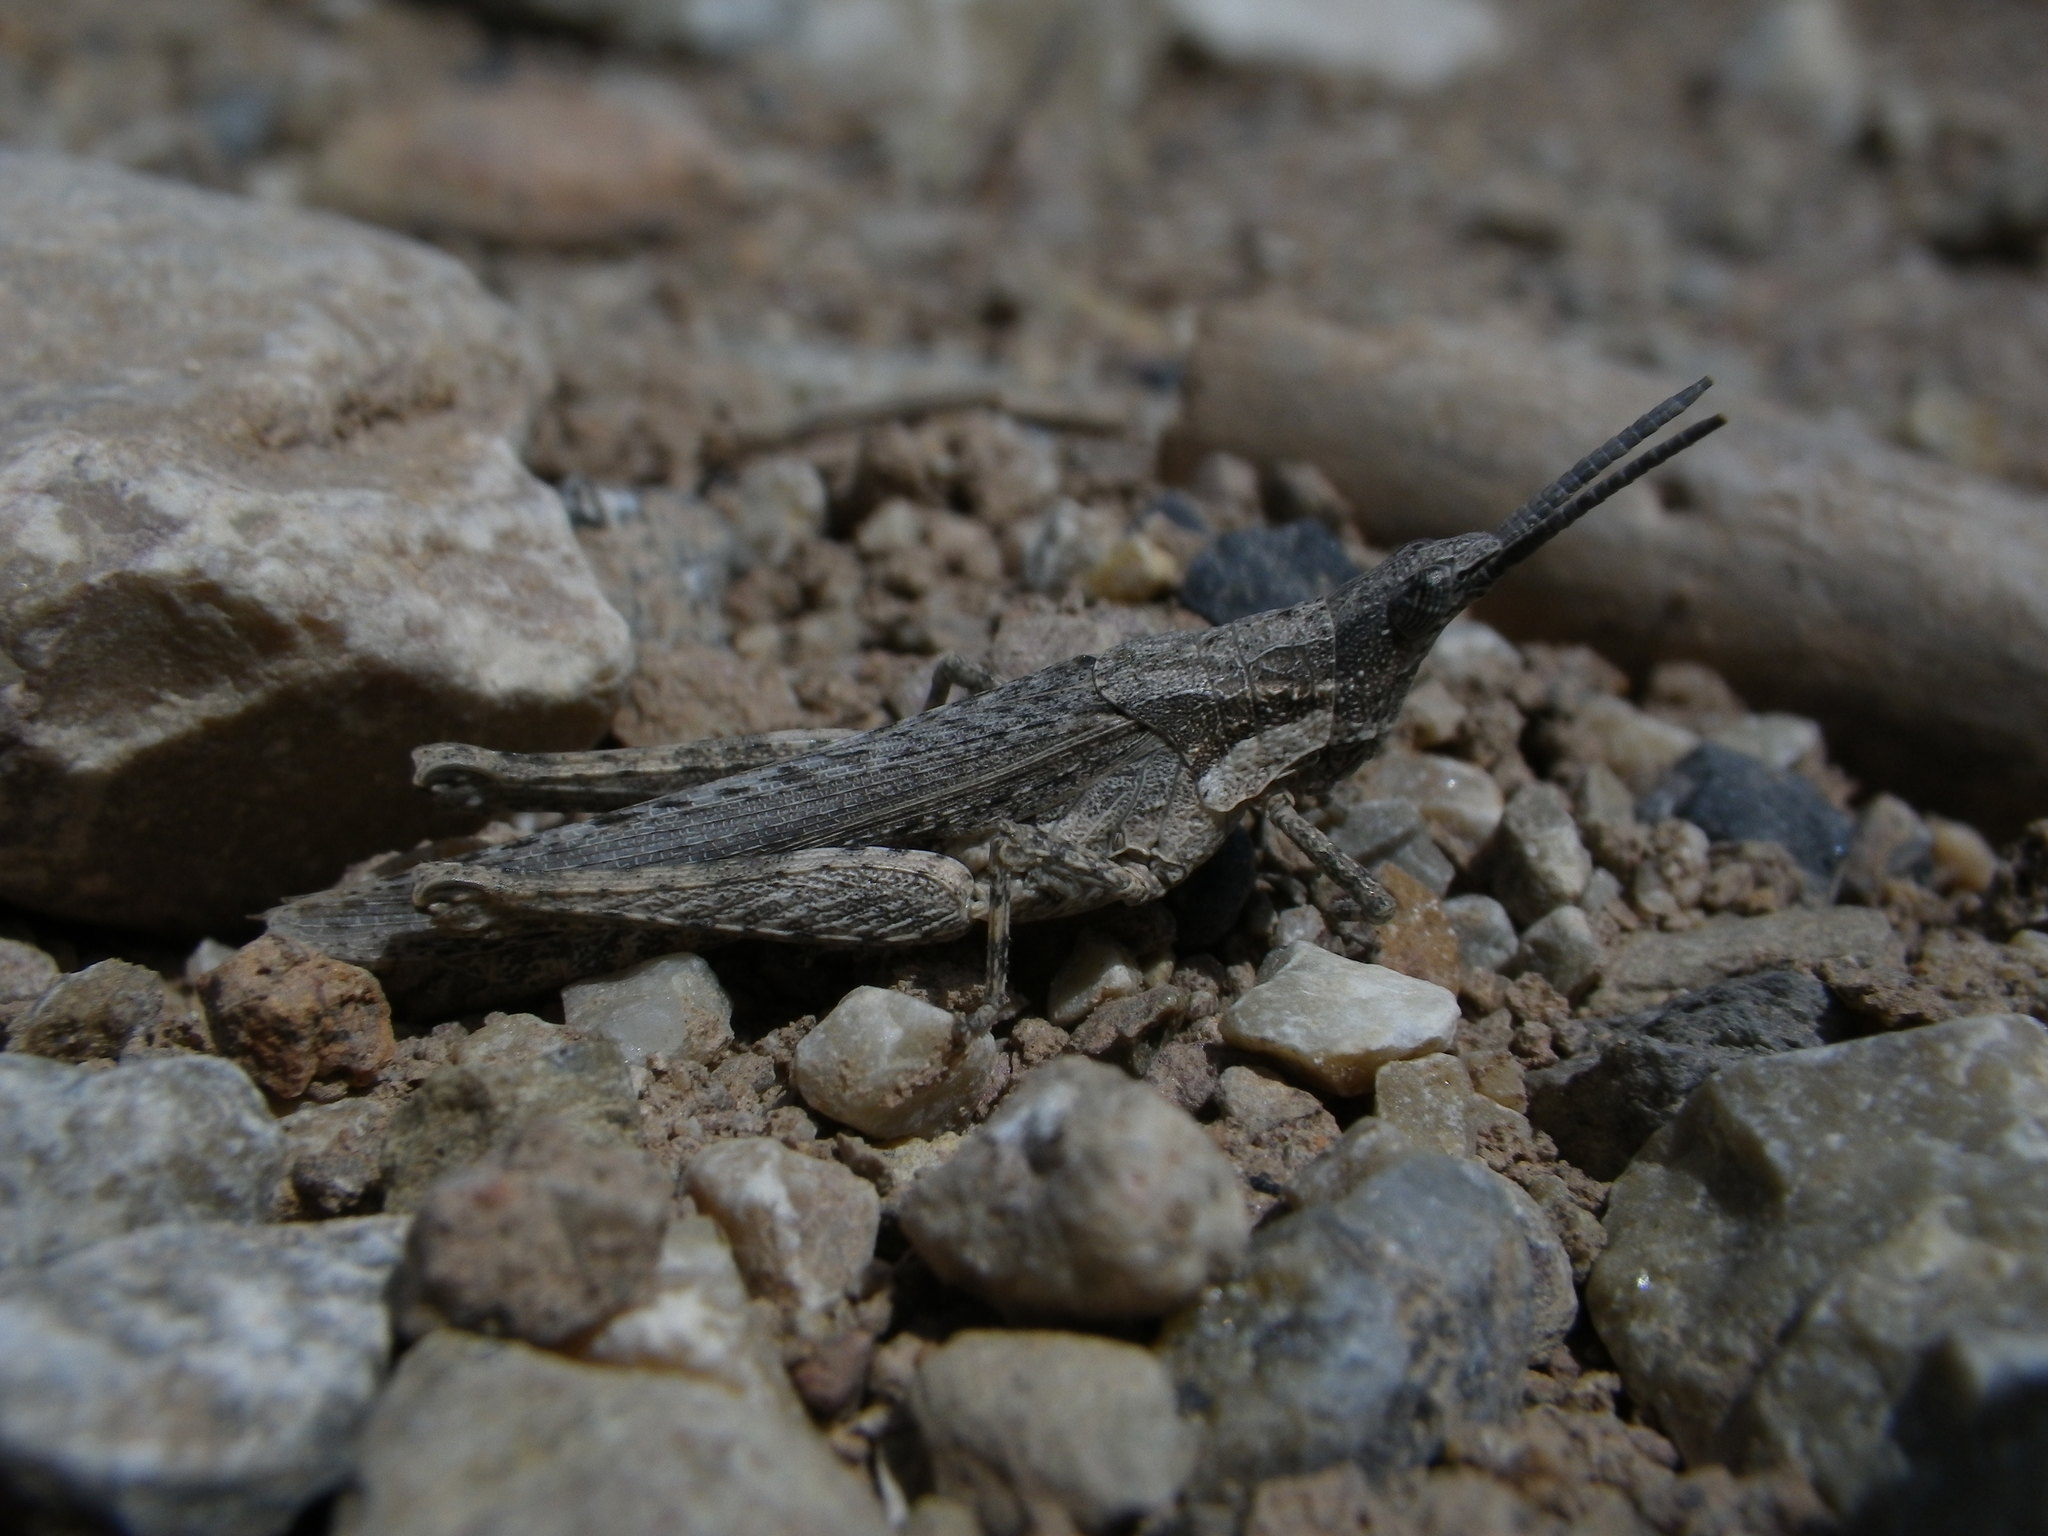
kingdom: Animalia
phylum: Arthropoda
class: Insecta
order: Orthoptera
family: Pyrgomorphidae
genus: Pyrgomorpha
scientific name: Pyrgomorpha conica
